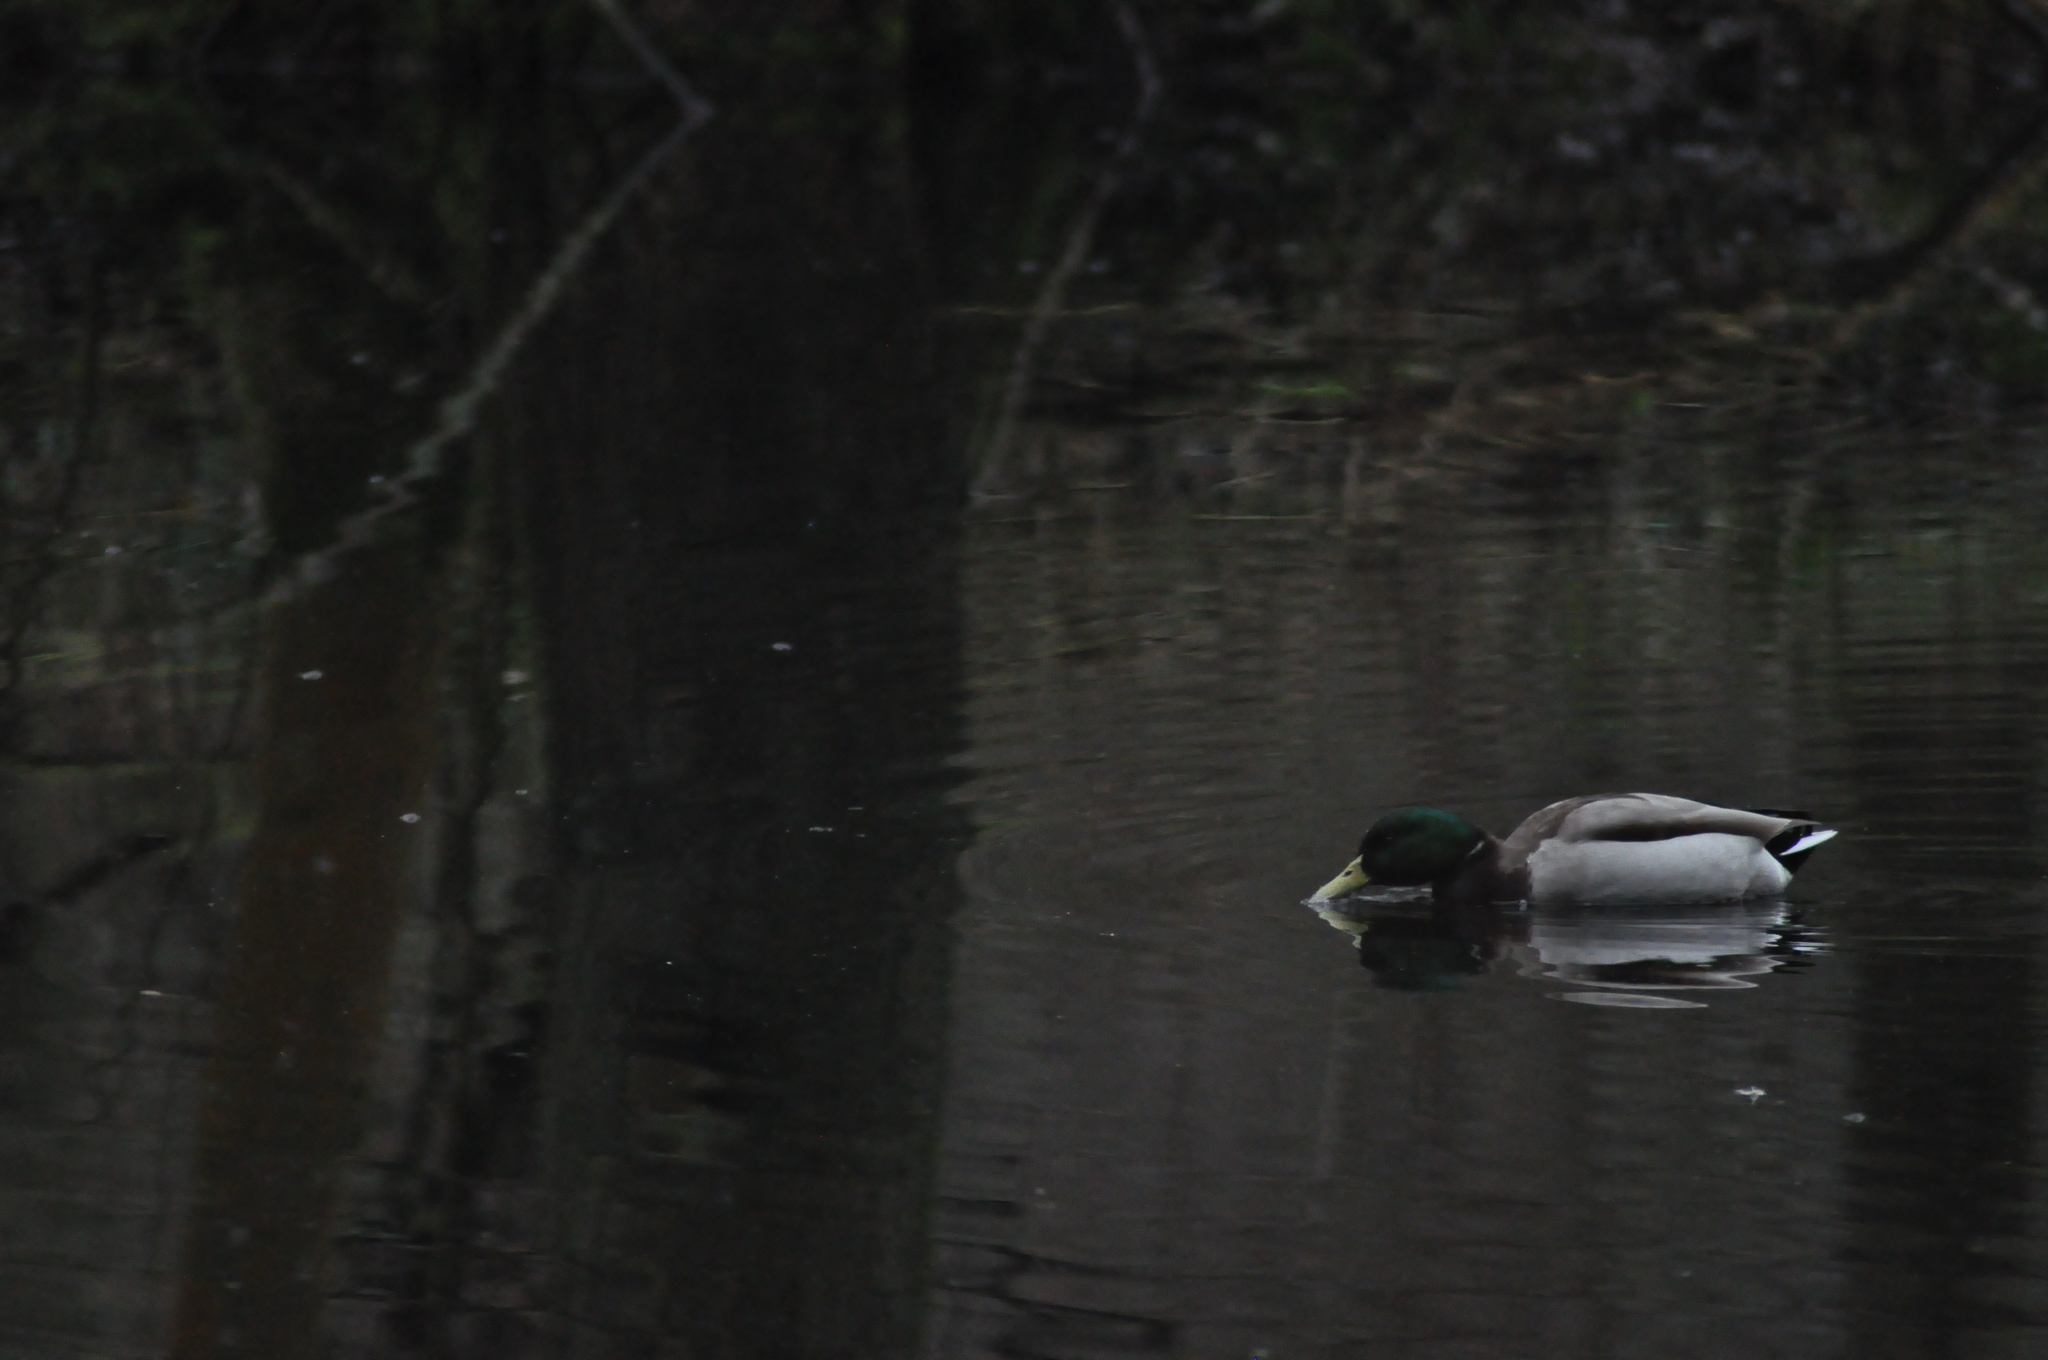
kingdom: Animalia
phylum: Chordata
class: Aves
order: Anseriformes
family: Anatidae
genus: Anas
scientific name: Anas platyrhynchos
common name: Mallard
